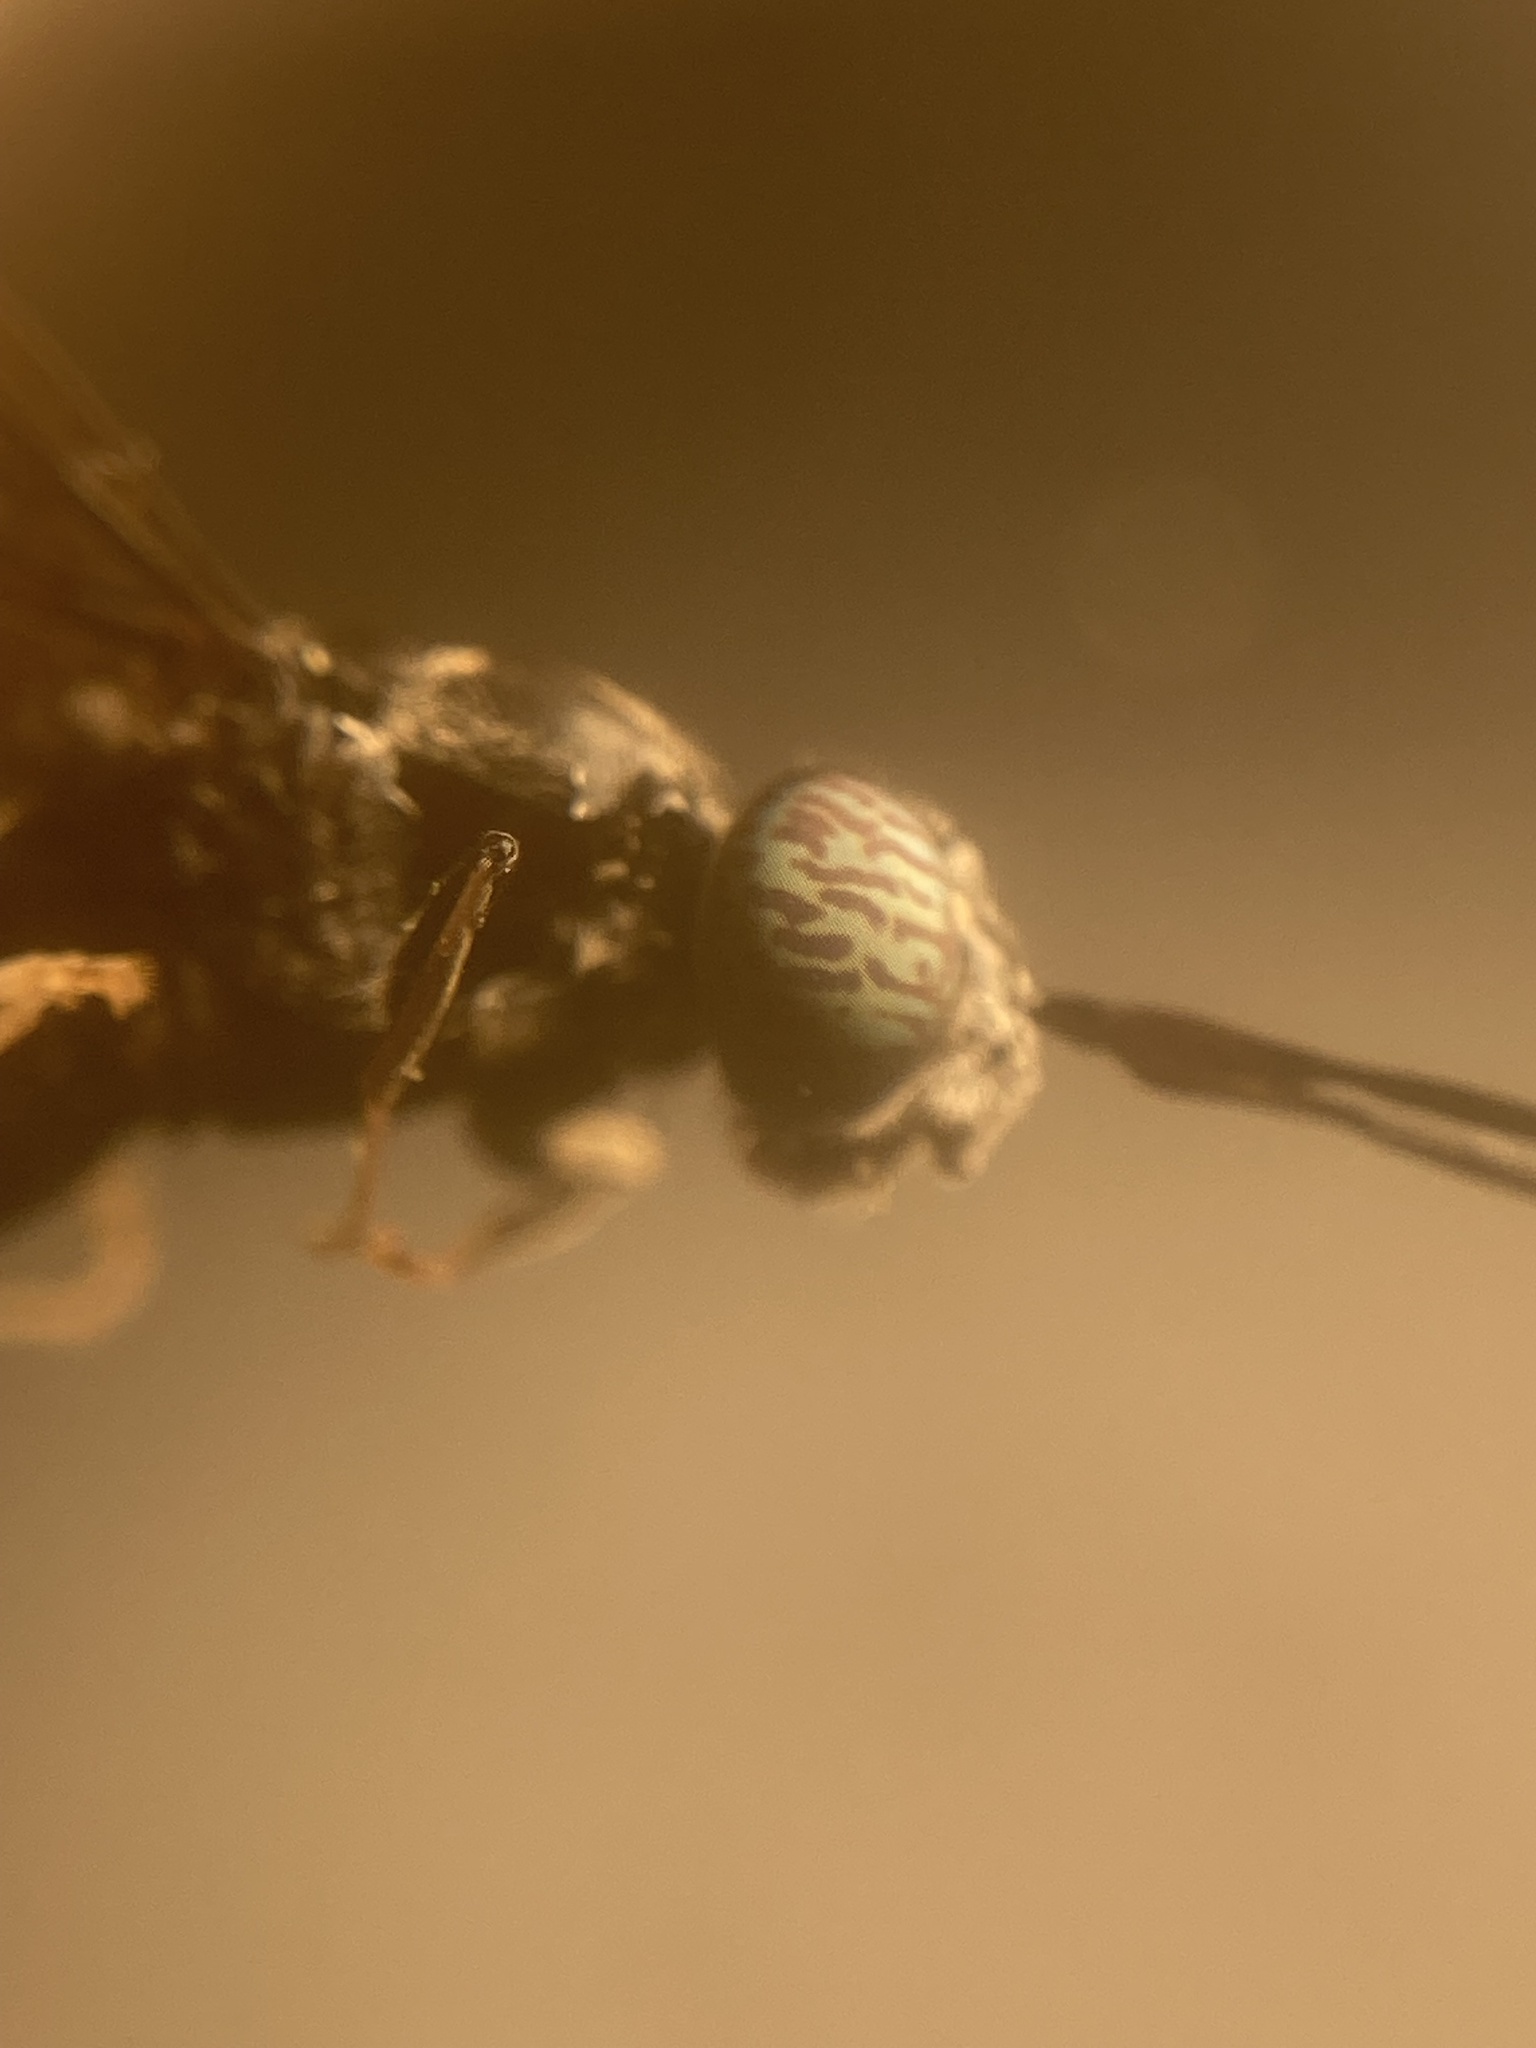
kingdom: Animalia
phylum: Arthropoda
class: Insecta
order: Diptera
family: Stratiomyidae
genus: Hermetia
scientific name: Hermetia illucens
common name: Black soldier fly
